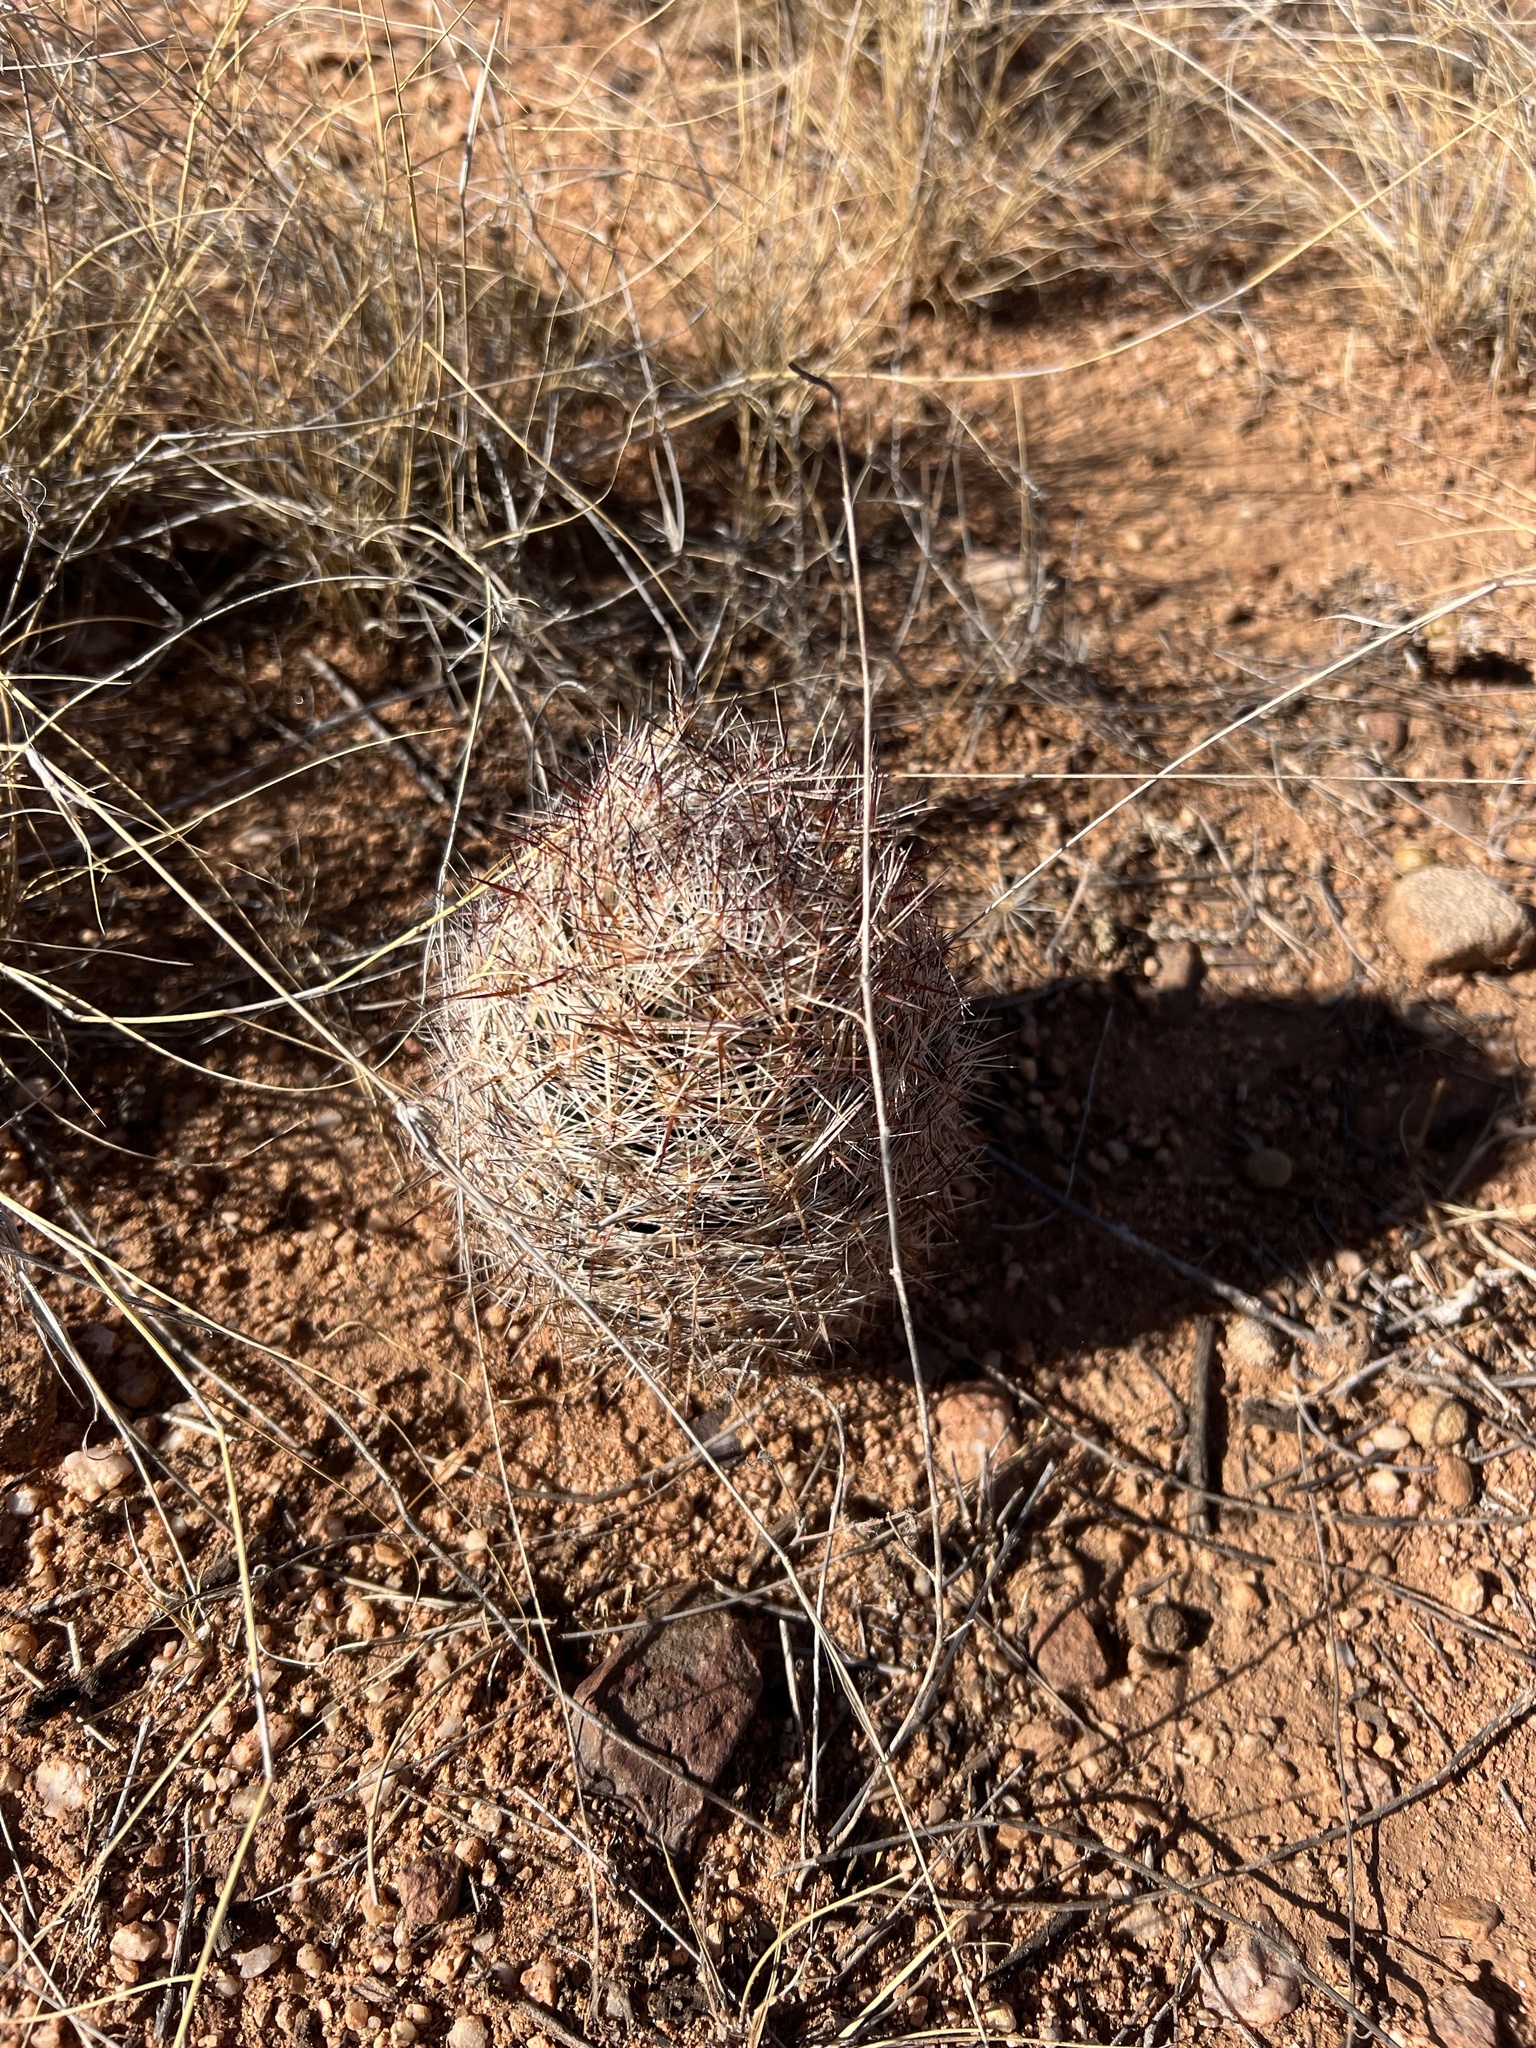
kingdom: Plantae
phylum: Tracheophyta
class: Magnoliopsida
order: Caryophyllales
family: Cactaceae
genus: Pelecyphora
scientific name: Pelecyphora vivipara
